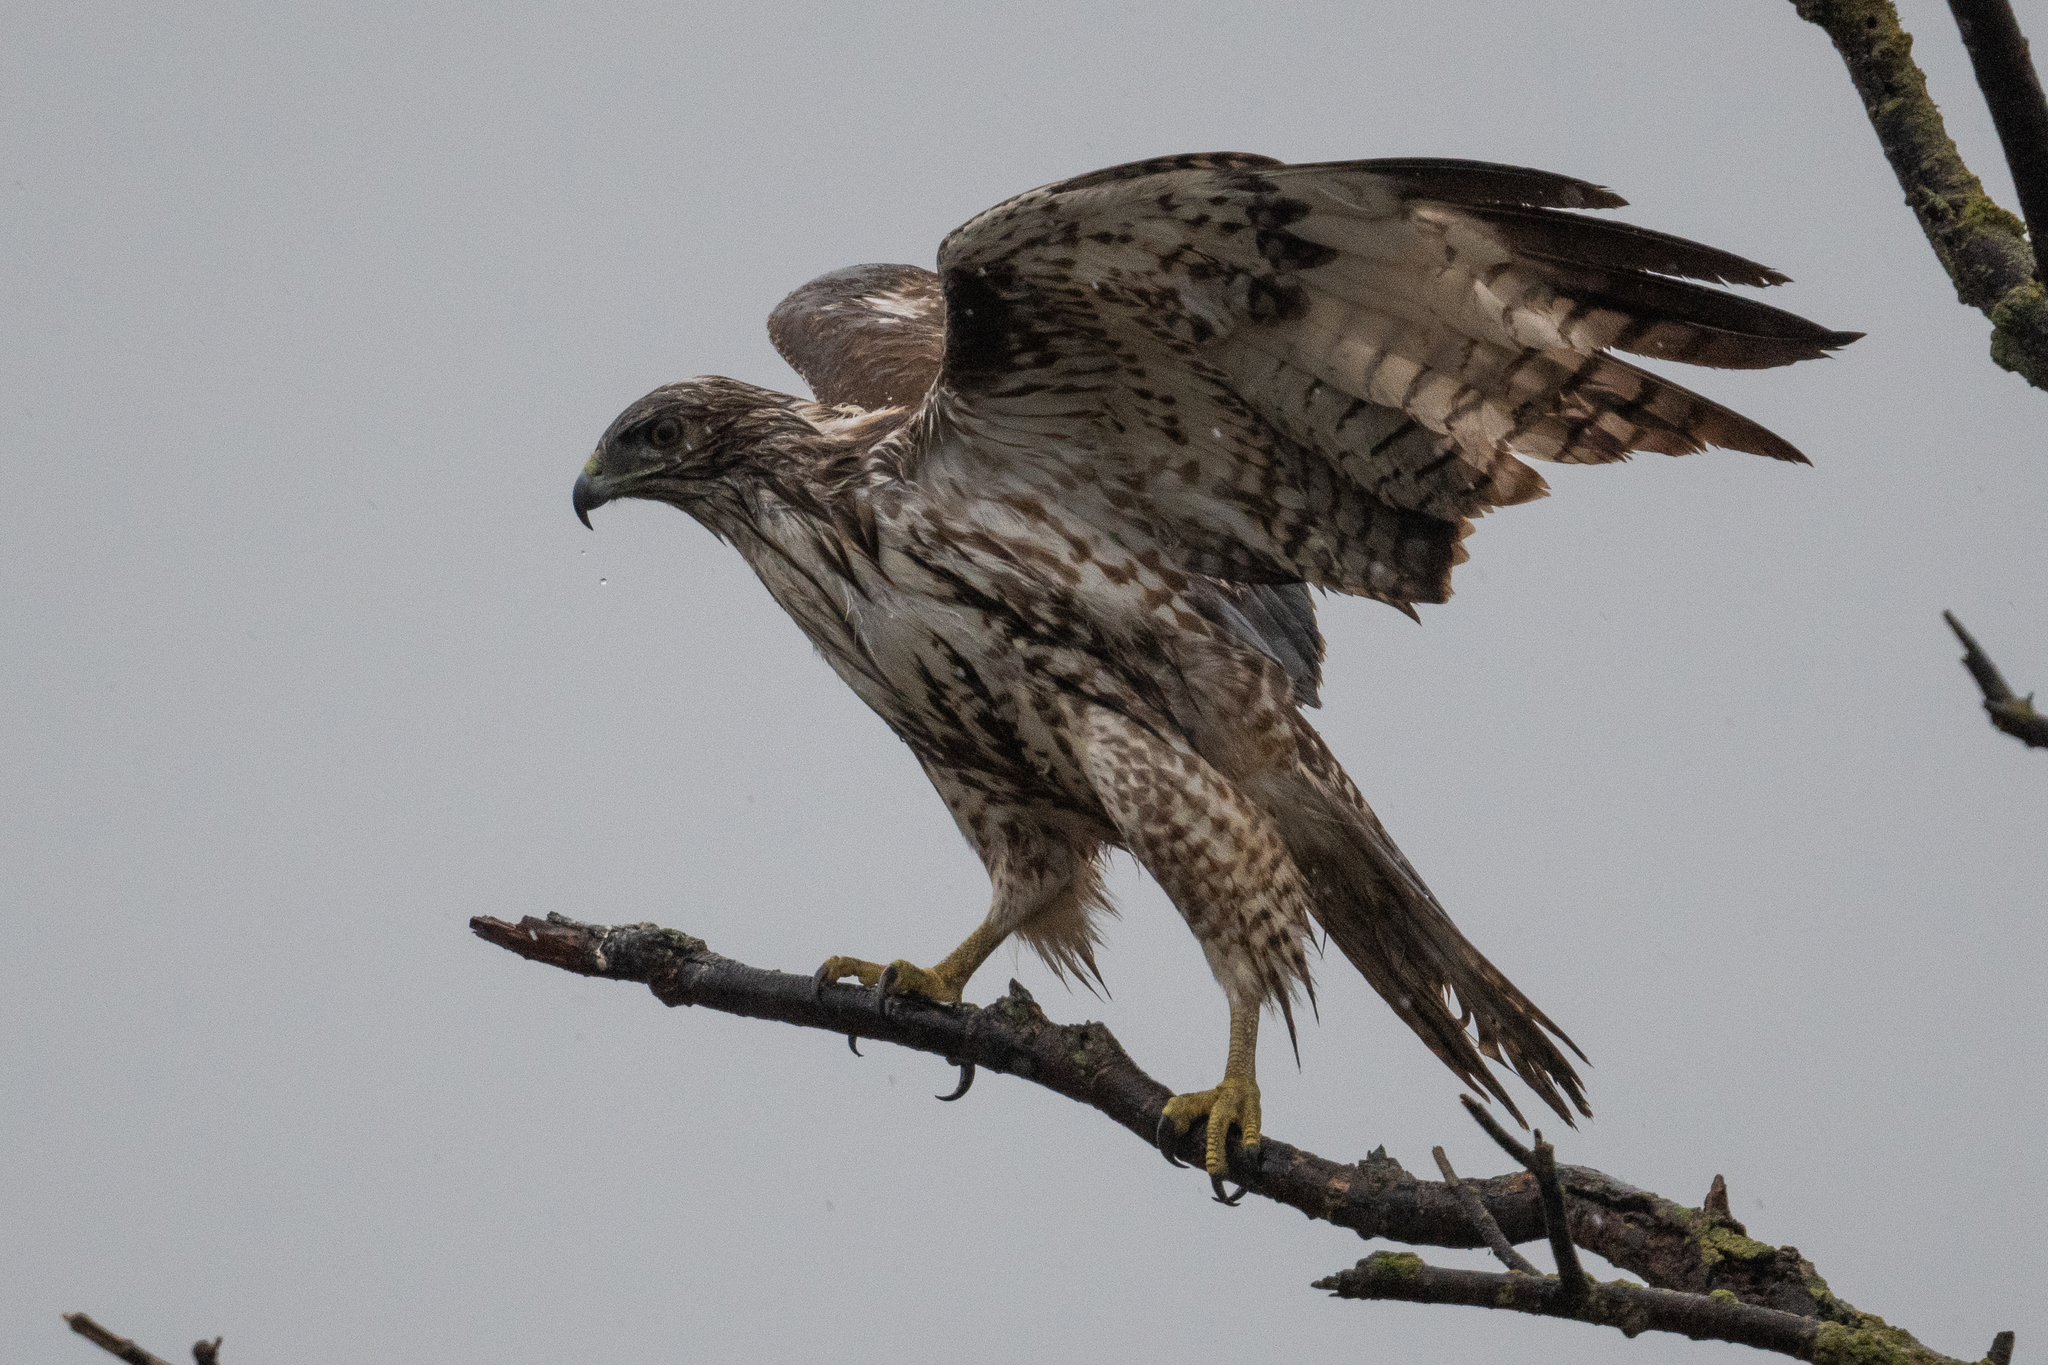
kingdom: Animalia
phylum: Chordata
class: Aves
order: Accipitriformes
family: Accipitridae
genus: Buteo
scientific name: Buteo jamaicensis
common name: Red-tailed hawk
